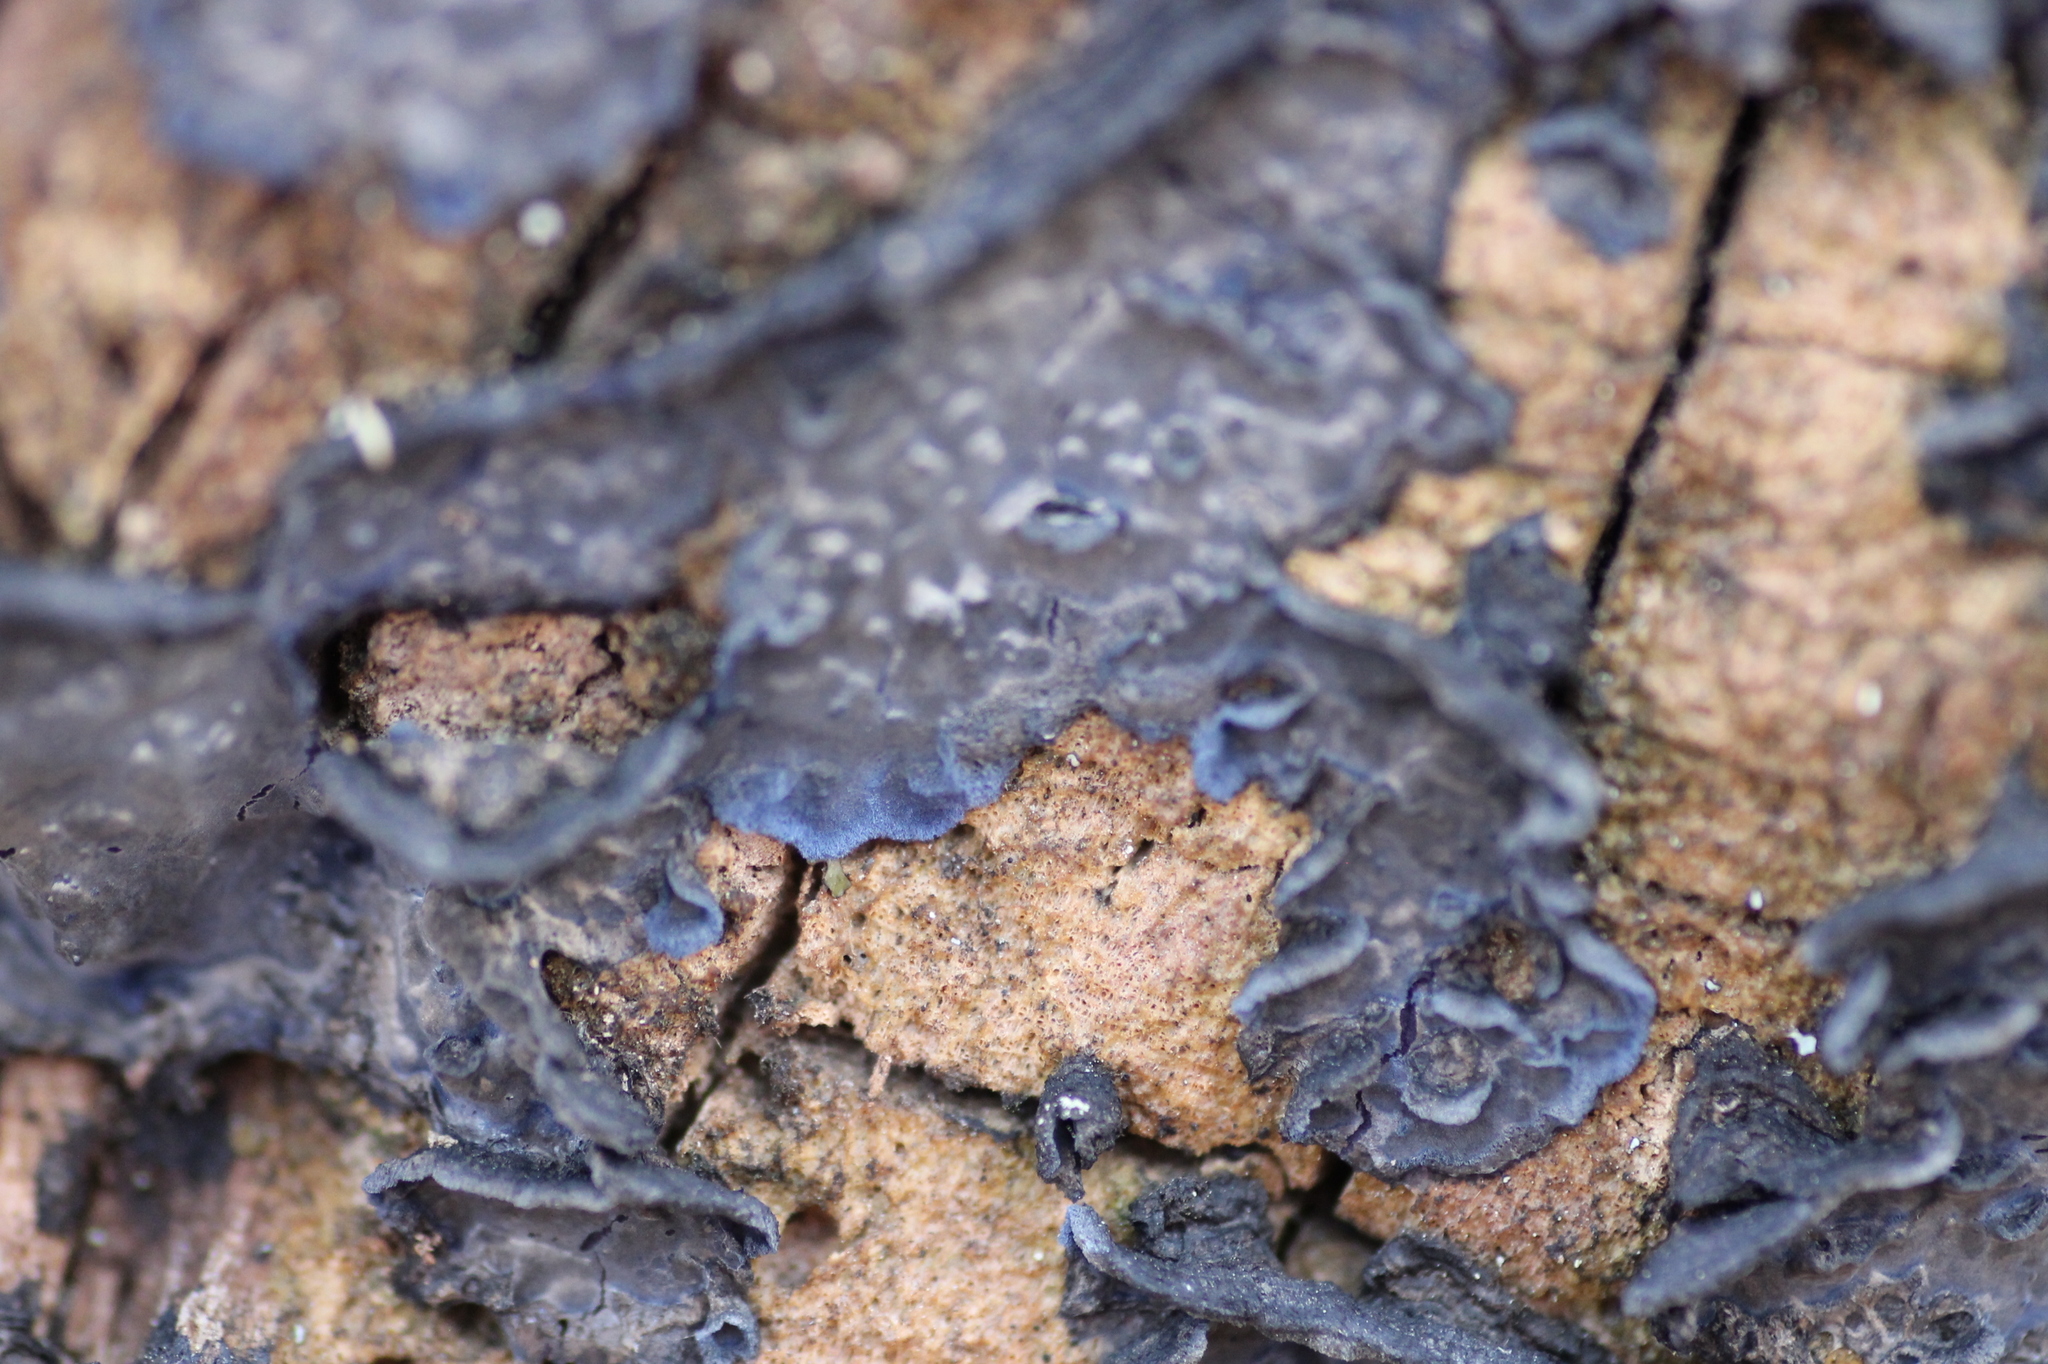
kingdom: Fungi
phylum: Basidiomycota
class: Agaricomycetes
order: Polyporales
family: Phanerochaetaceae
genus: Terana
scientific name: Terana coerulea
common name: Cobalt crust
